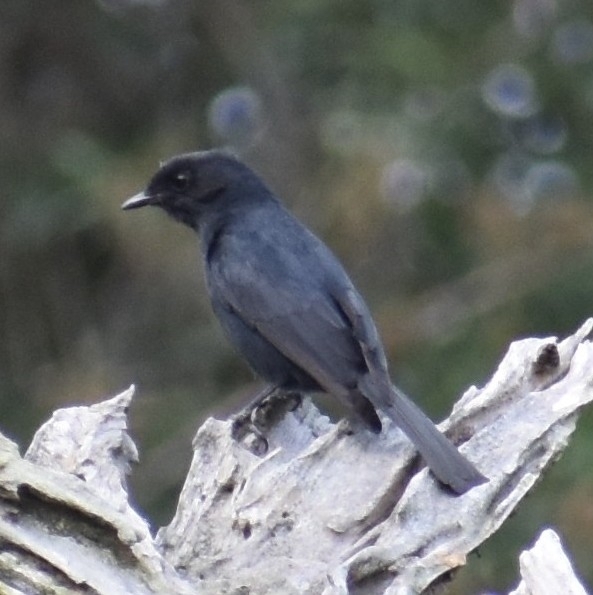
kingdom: Animalia
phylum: Chordata
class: Aves
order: Passeriformes
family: Muscicapidae
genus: Melaenornis
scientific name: Melaenornis pammelaina
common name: Southern black flycatcher
